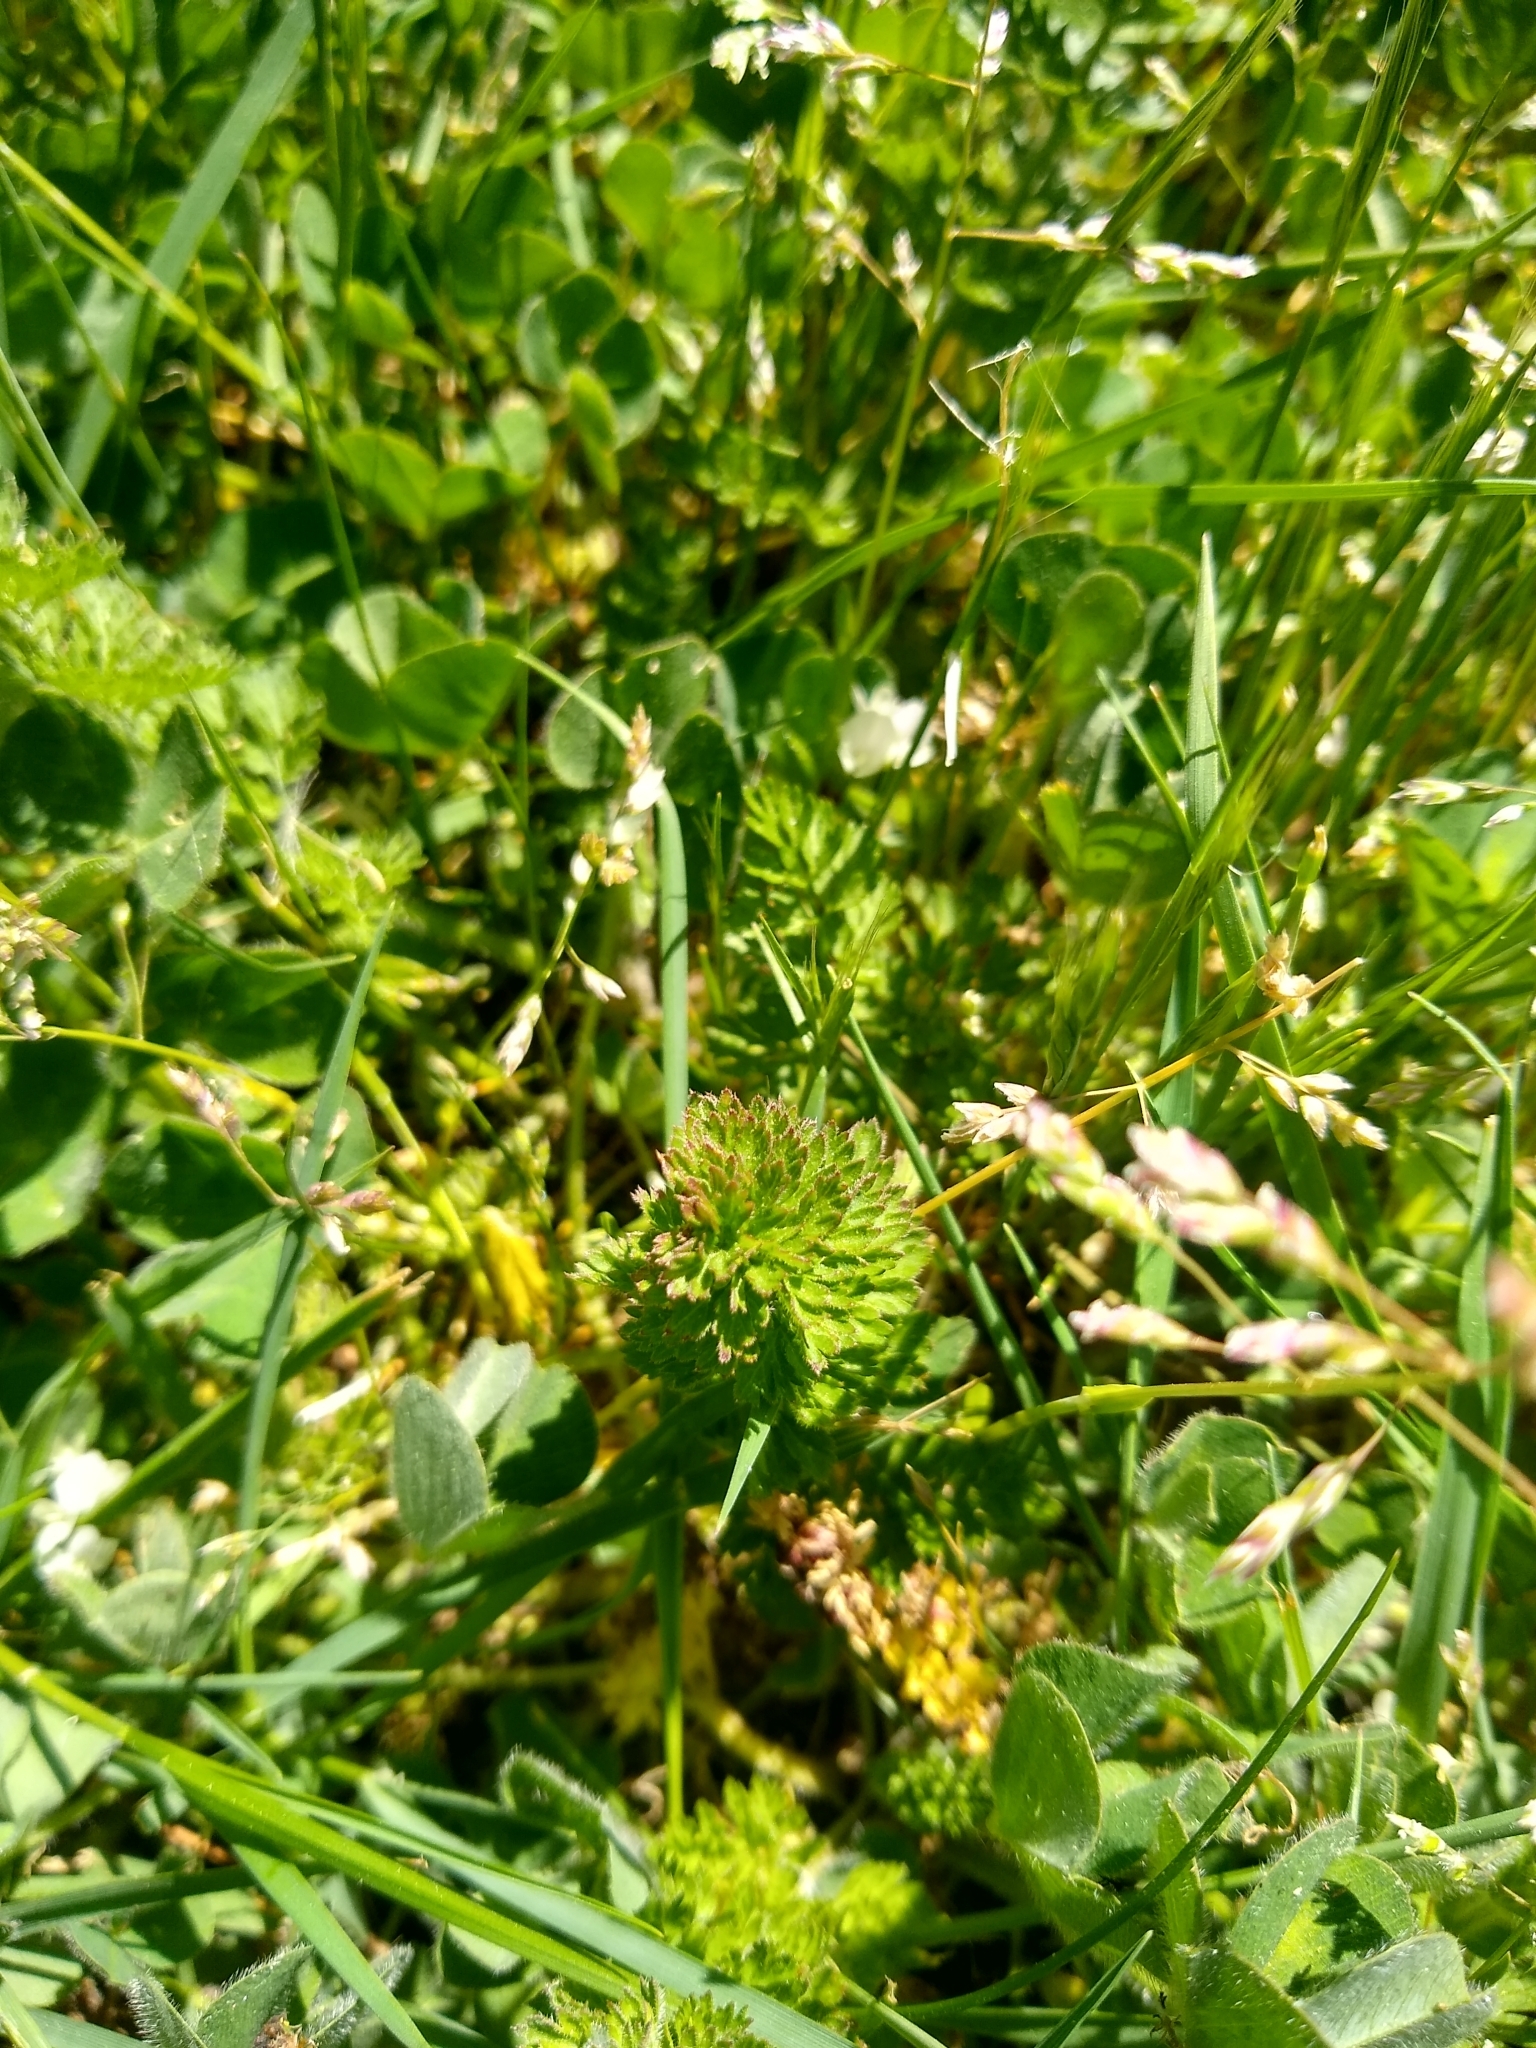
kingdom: Plantae
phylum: Tracheophyta
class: Magnoliopsida
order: Apiales
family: Apiaceae
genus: Daucus
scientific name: Daucus carota
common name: Wild carrot
